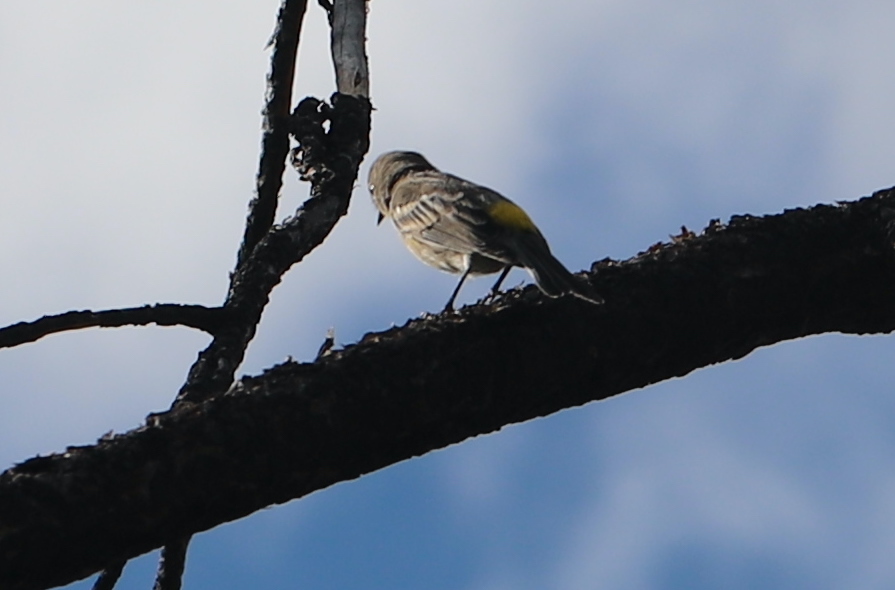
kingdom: Animalia
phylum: Chordata
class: Aves
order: Passeriformes
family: Parulidae
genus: Setophaga
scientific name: Setophaga coronata
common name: Myrtle warbler
